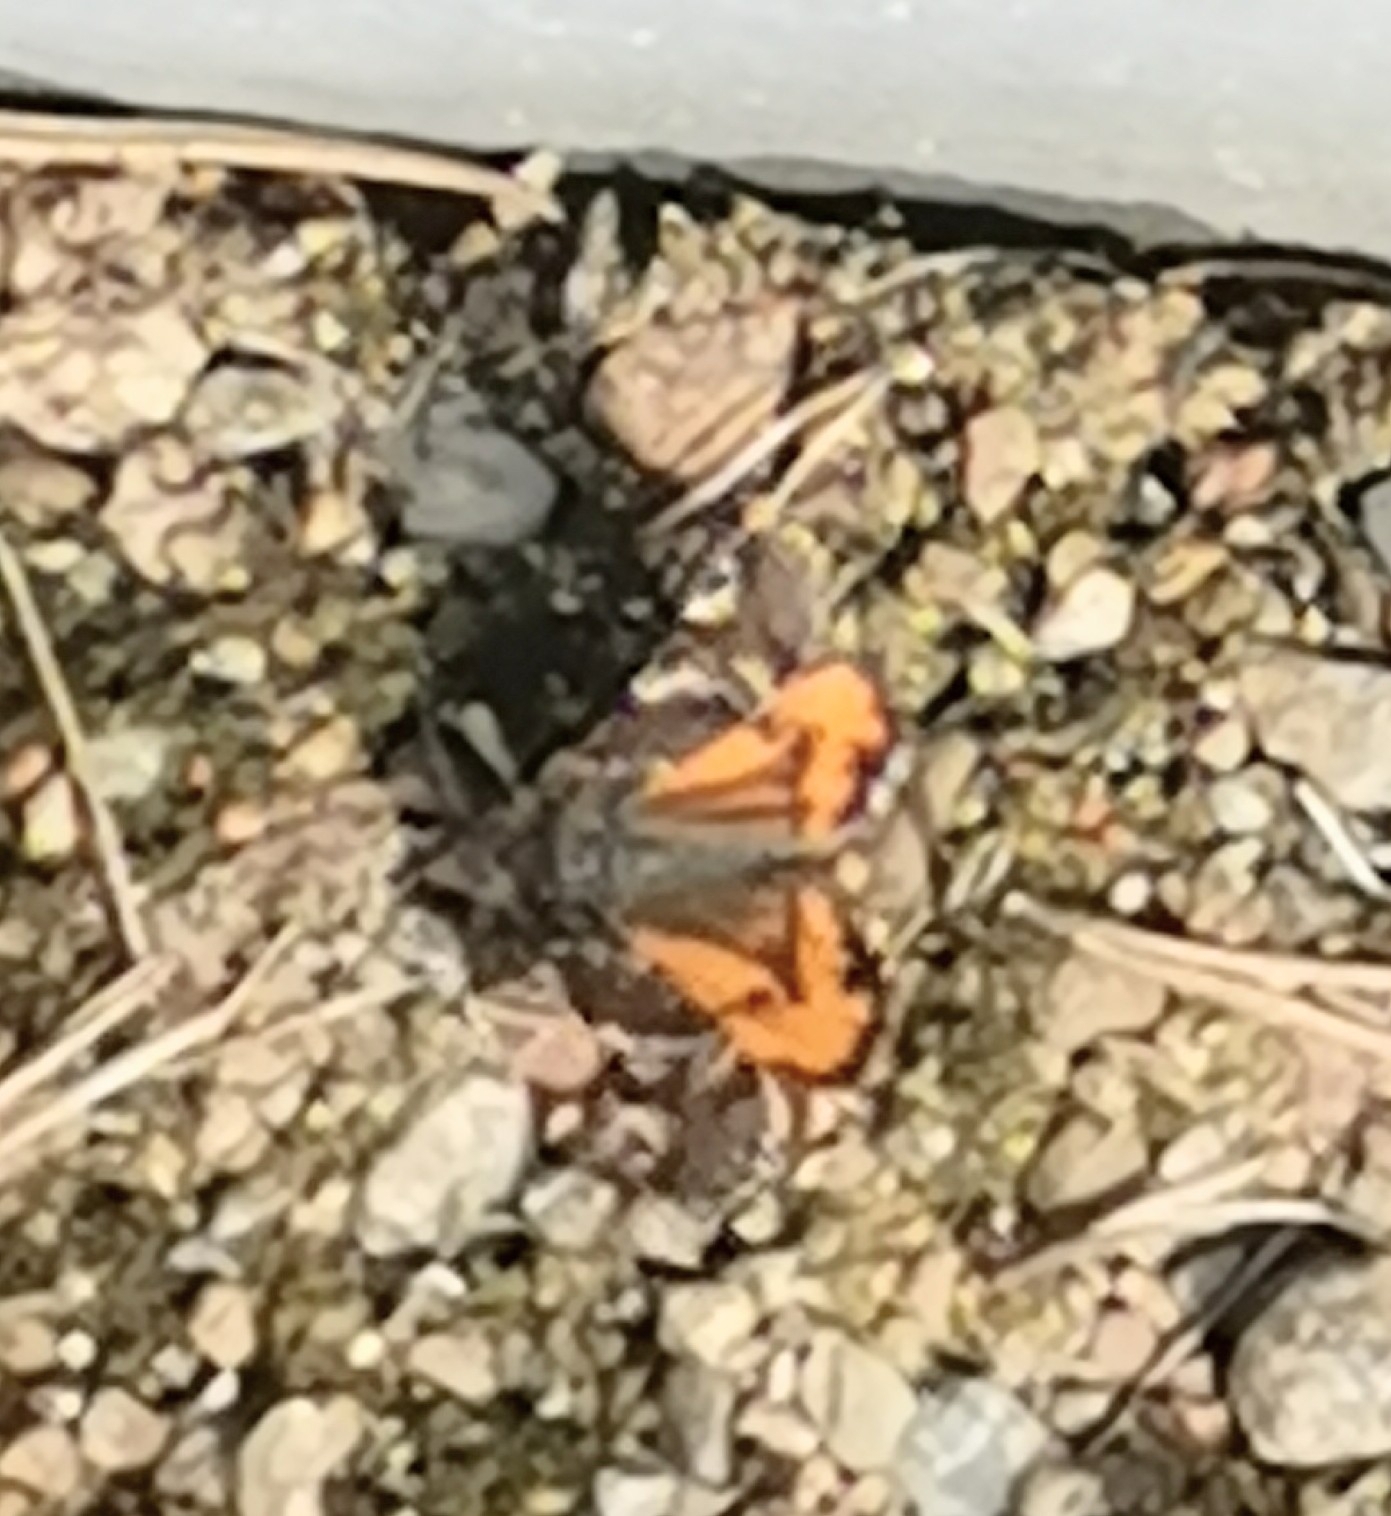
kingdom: Animalia
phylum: Arthropoda
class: Insecta
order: Lepidoptera
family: Geometridae
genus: Archiearis
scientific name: Archiearis parthenias
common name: Orange underwing
